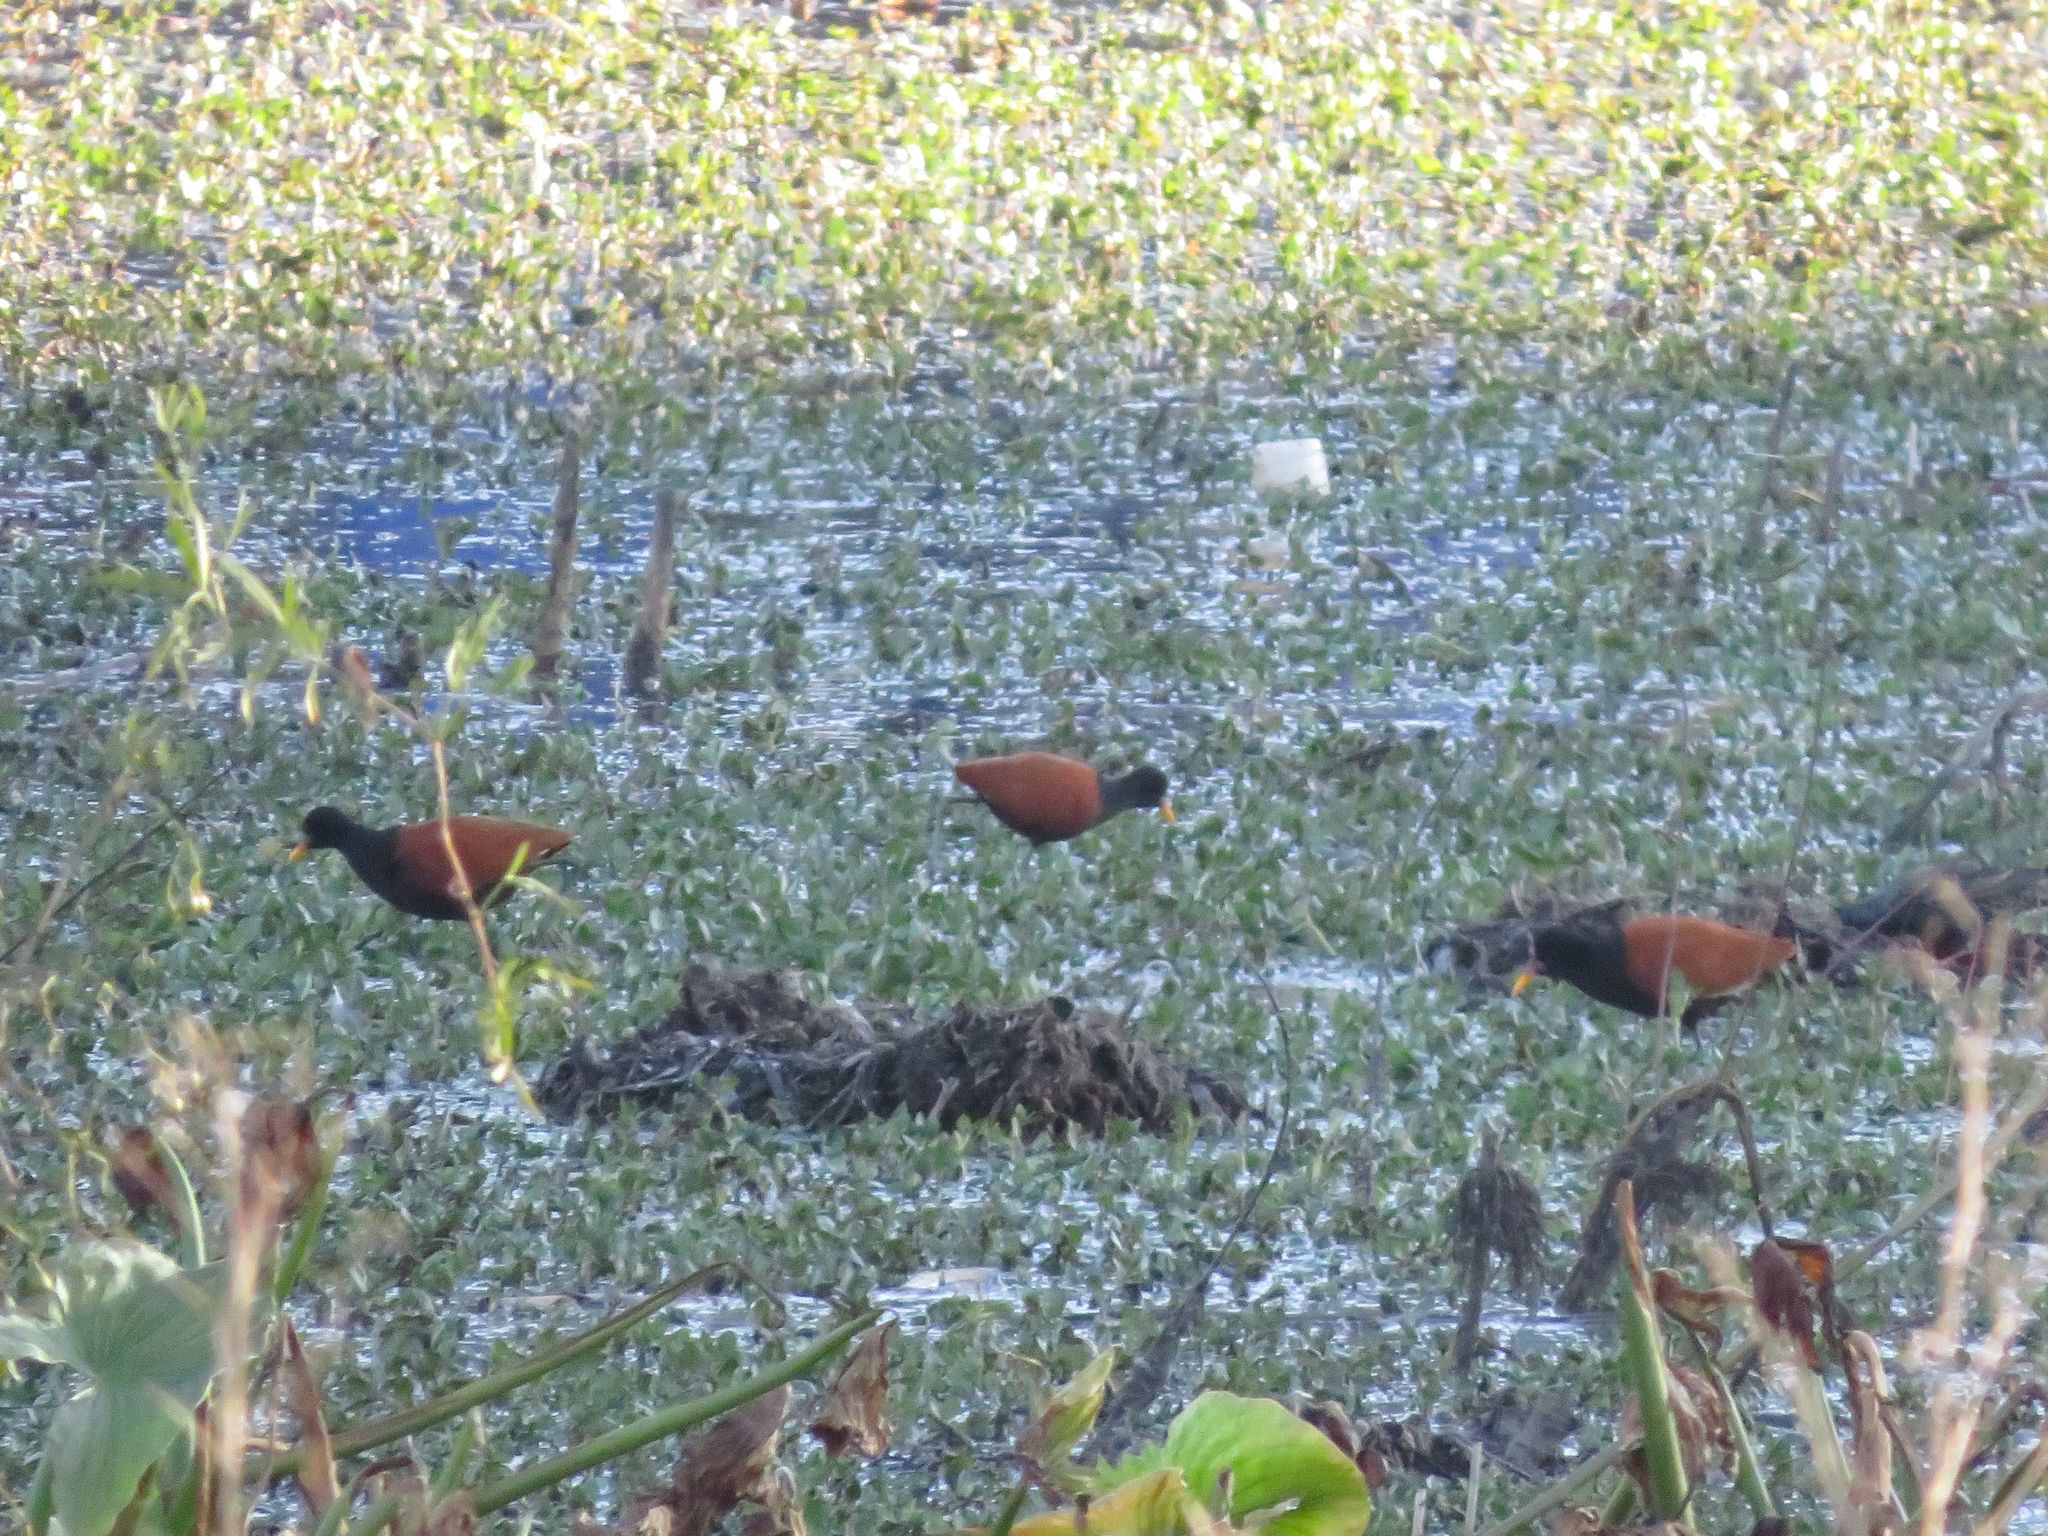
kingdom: Animalia
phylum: Chordata
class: Aves
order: Charadriiformes
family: Jacanidae
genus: Jacana
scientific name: Jacana jacana
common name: Wattled jacana
